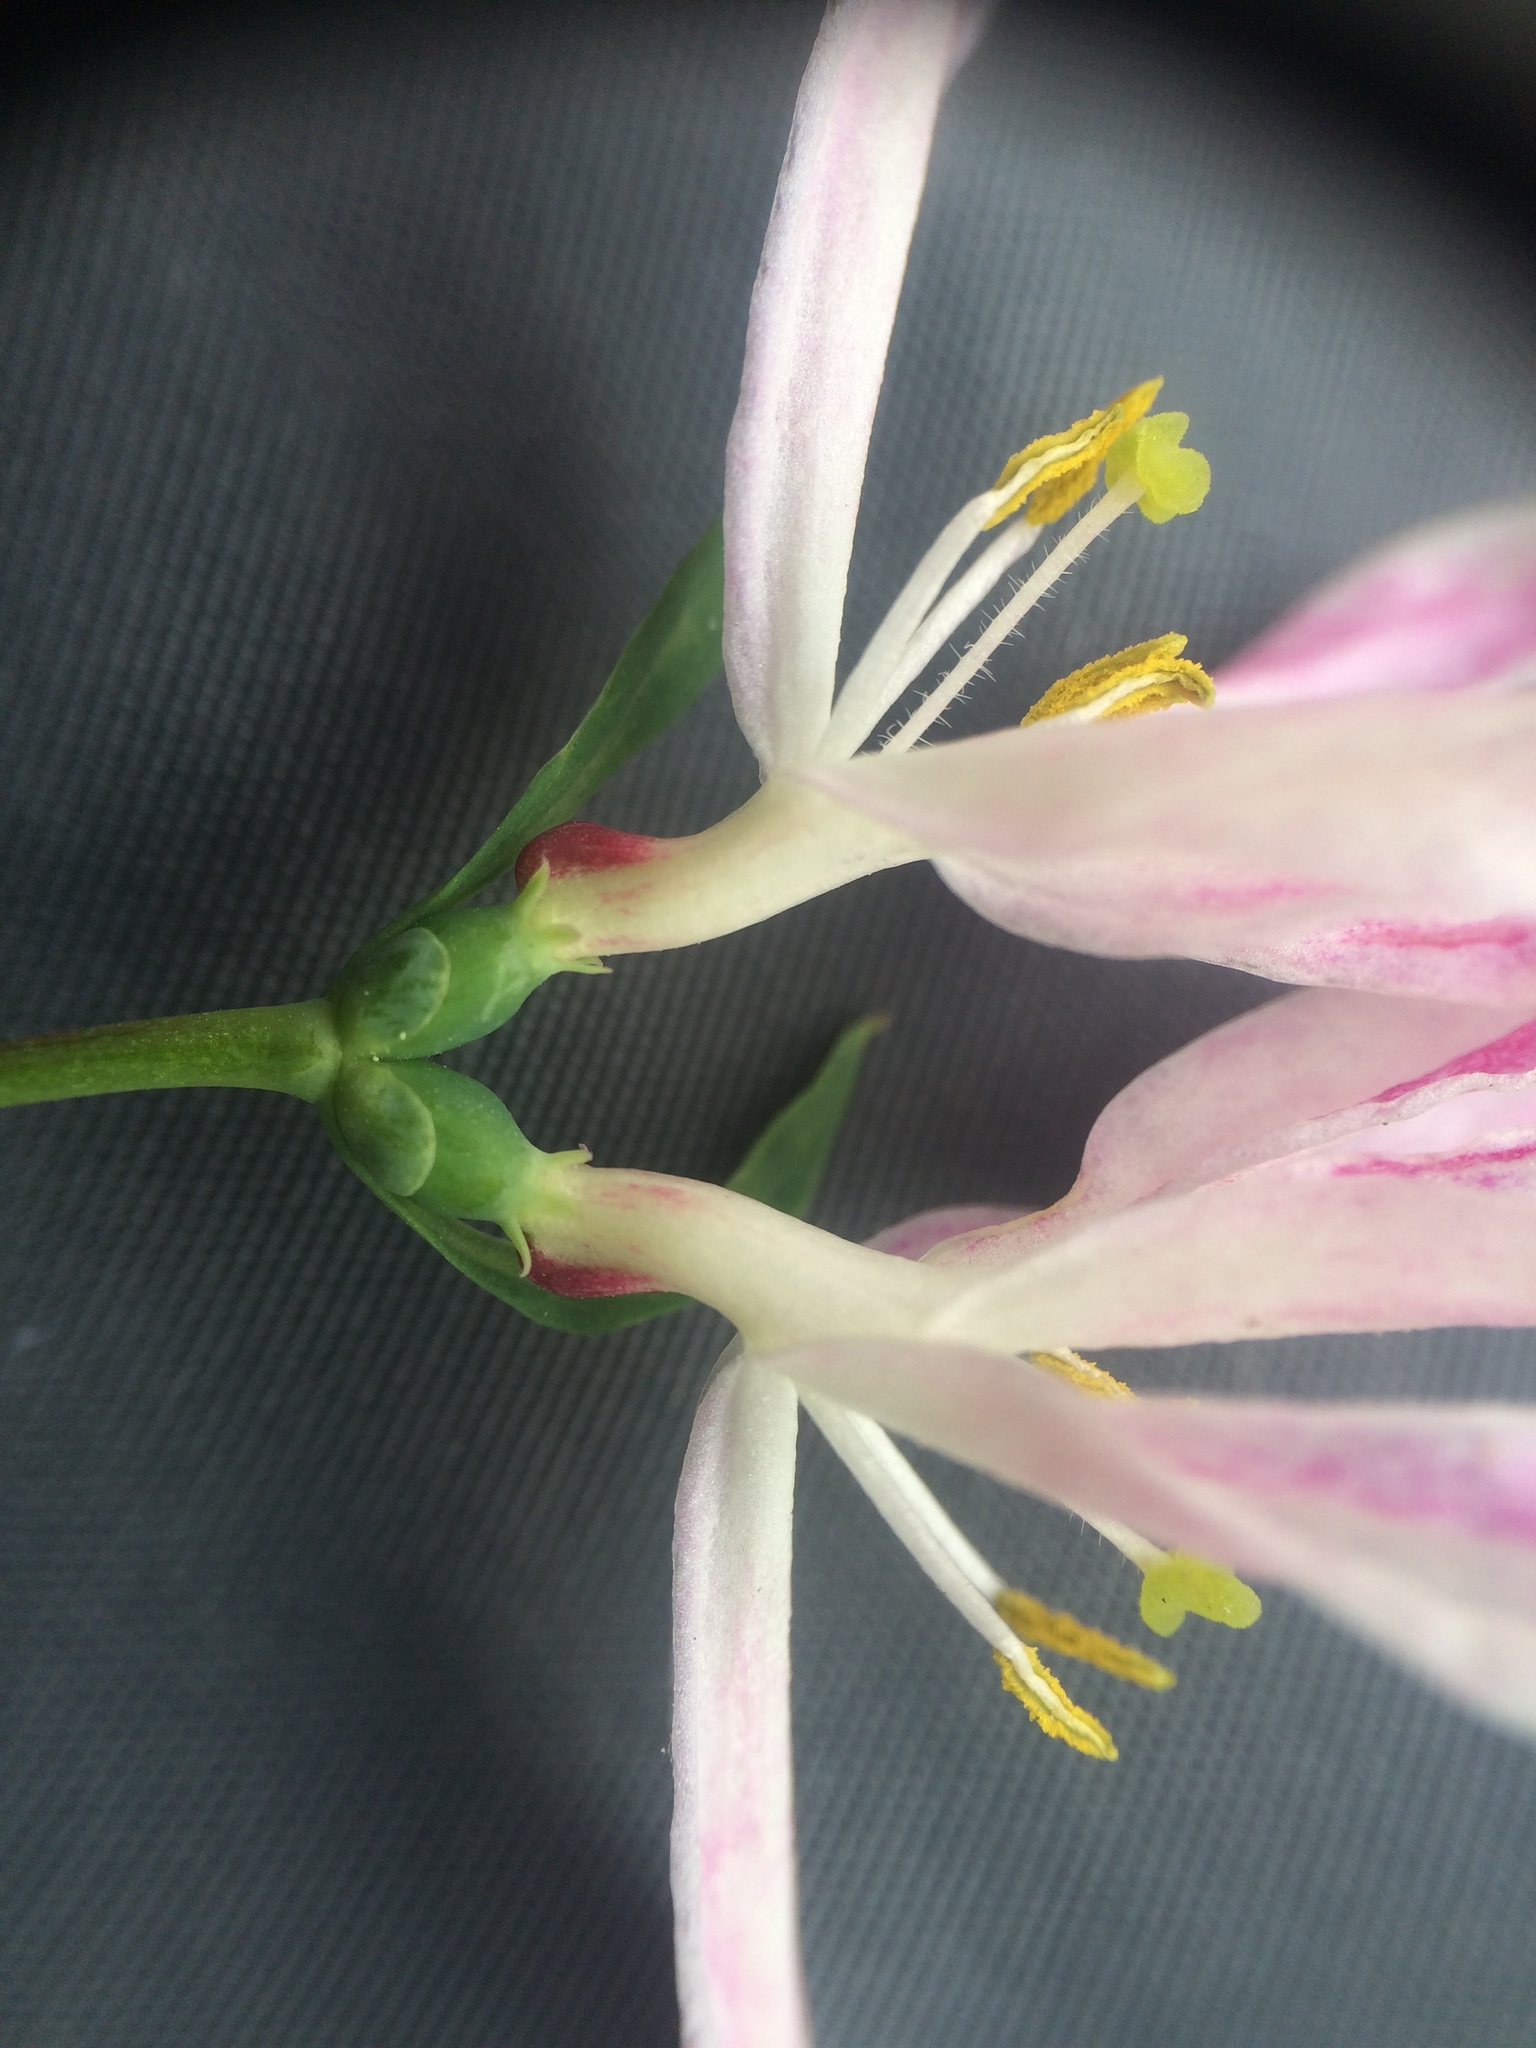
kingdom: Plantae
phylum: Tracheophyta
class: Magnoliopsida
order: Dipsacales
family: Caprifoliaceae
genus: Lonicera
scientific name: Lonicera tatarica
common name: Tatarian honeysuckle
